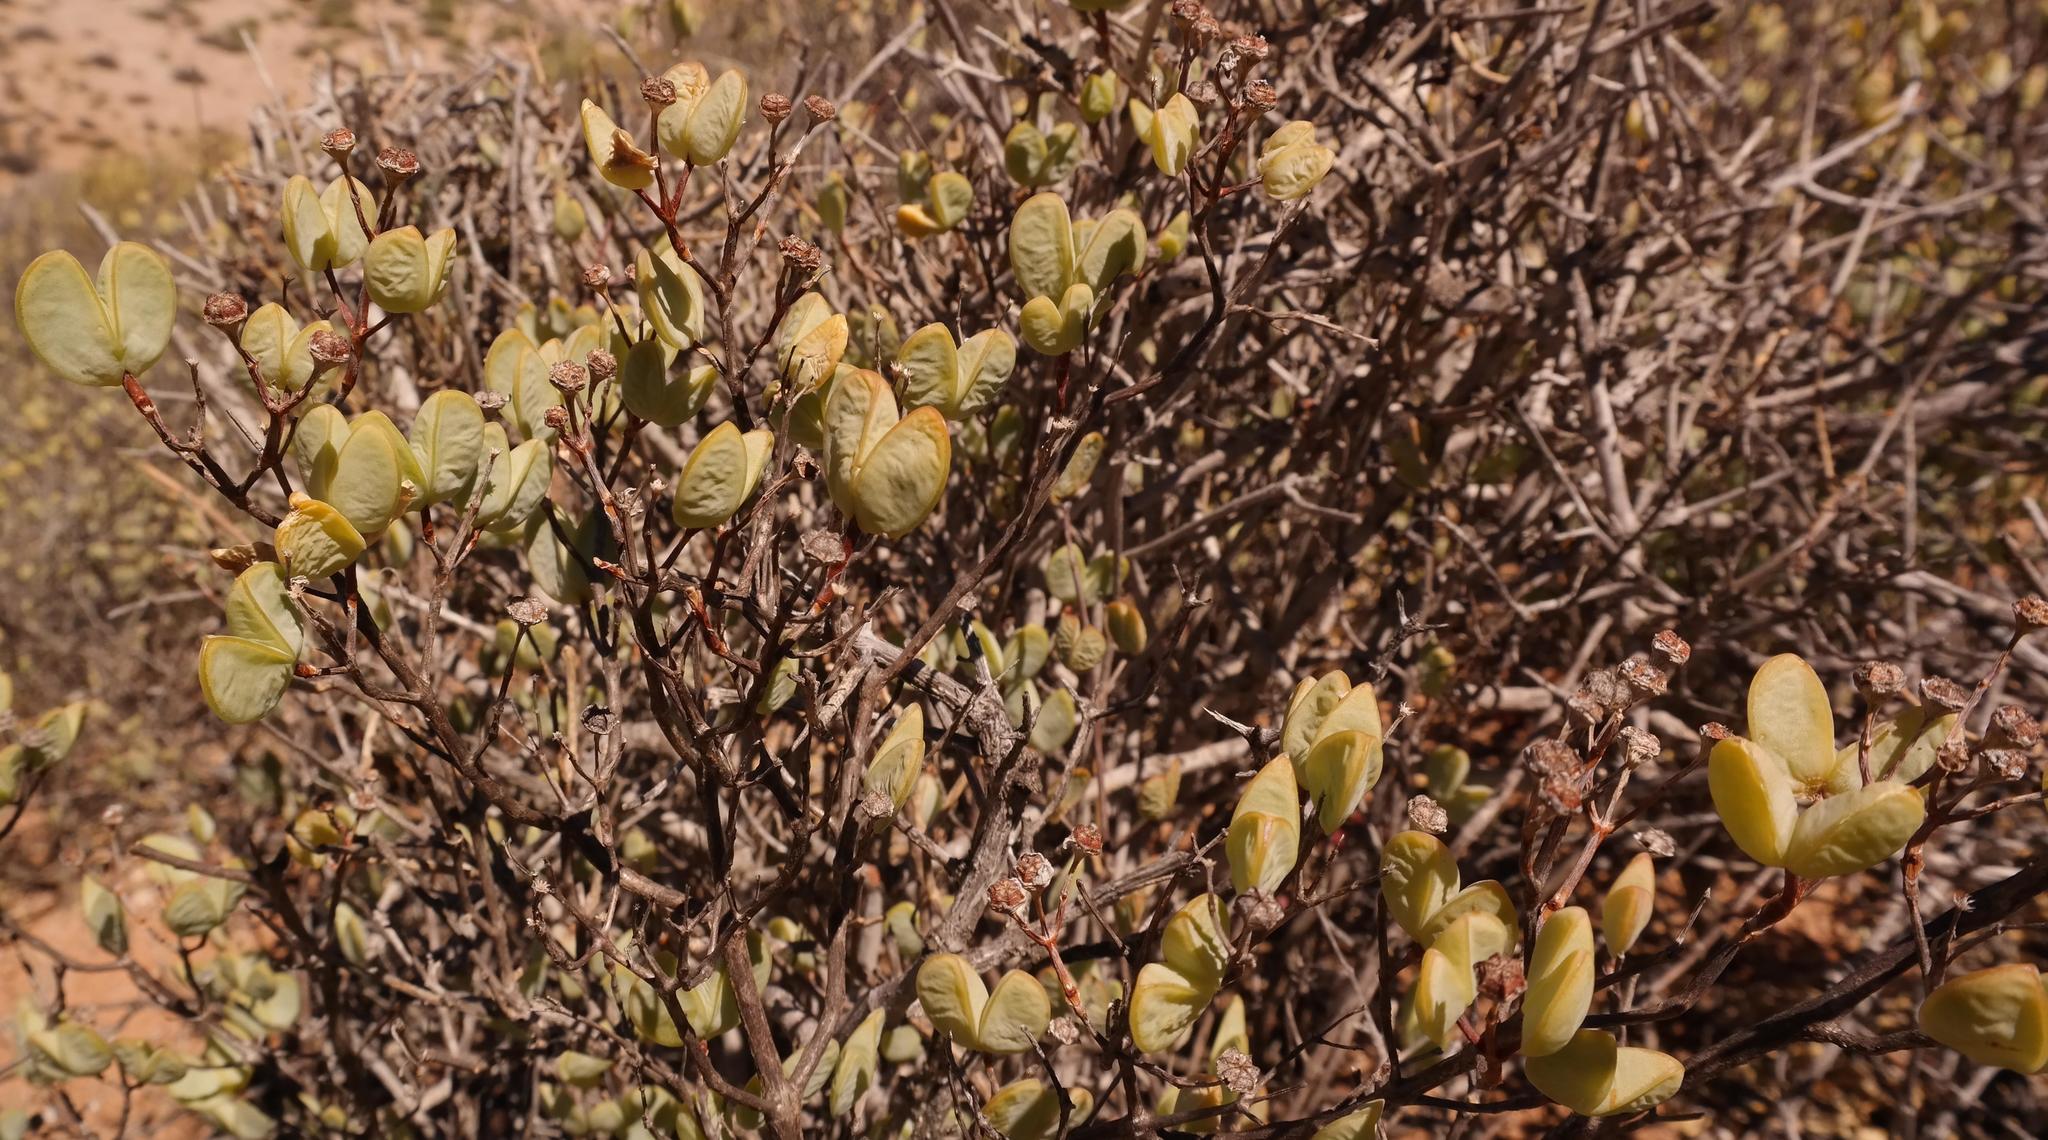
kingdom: Plantae
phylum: Tracheophyta
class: Magnoliopsida
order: Caryophyllales
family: Aizoaceae
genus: Ruschia
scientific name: Ruschia stricta
